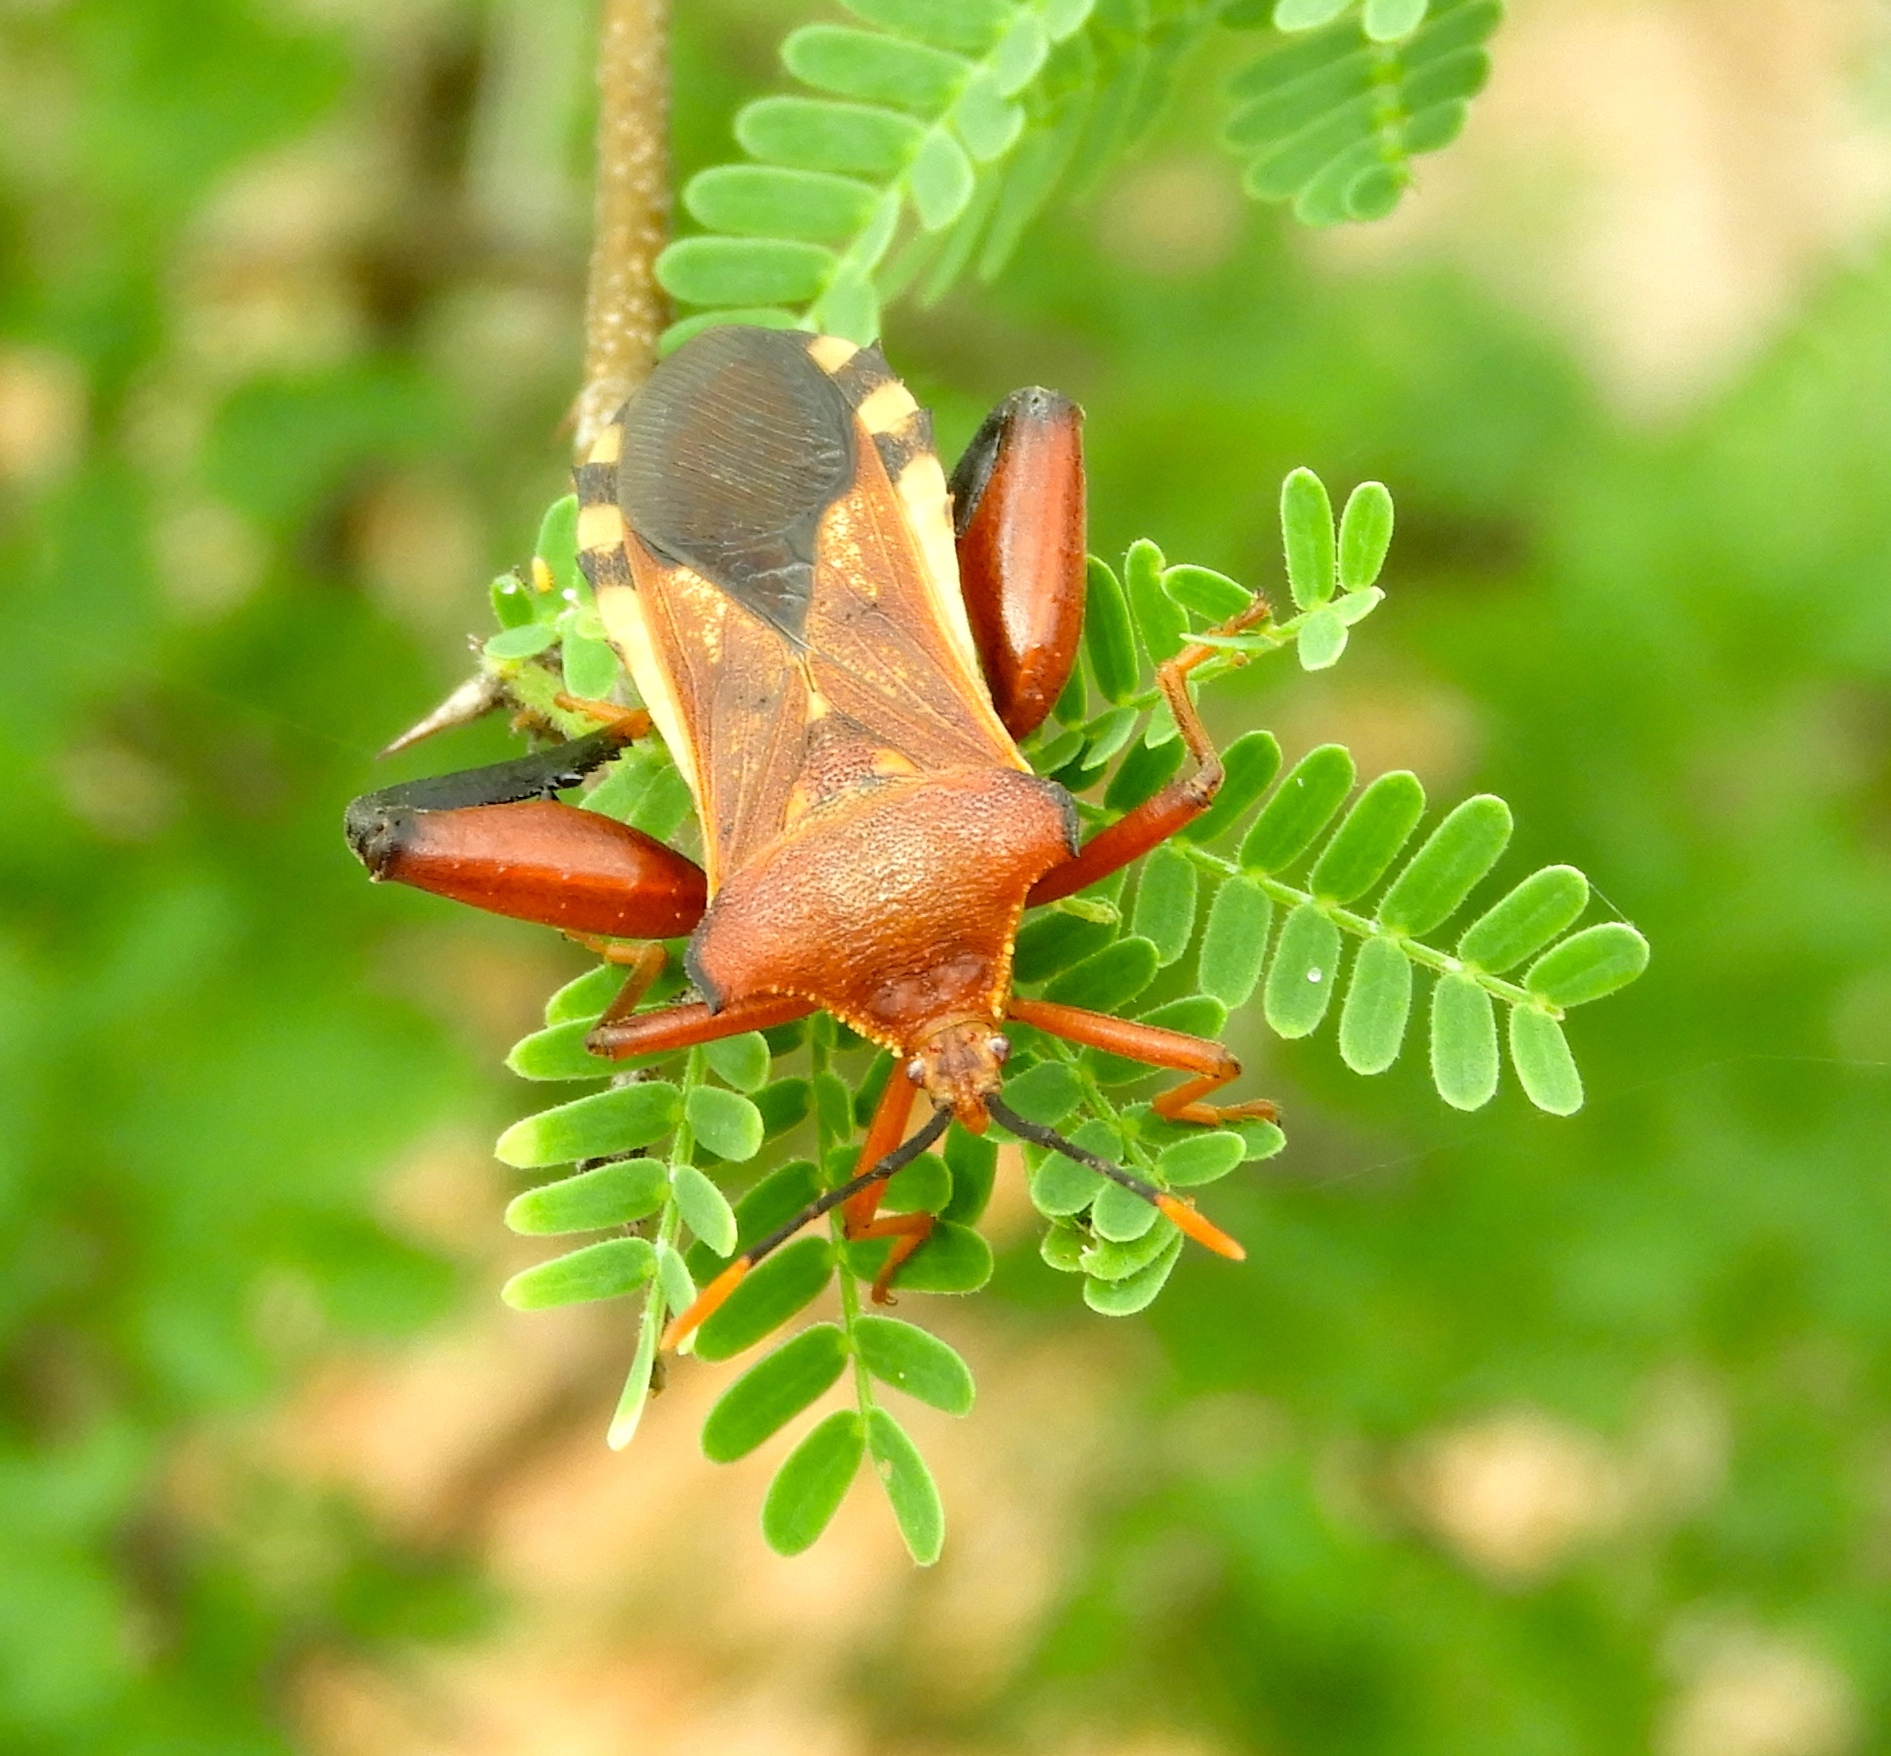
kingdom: Animalia
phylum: Arthropoda
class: Insecta
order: Hemiptera
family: Coreidae
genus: Mozena
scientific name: Mozena
